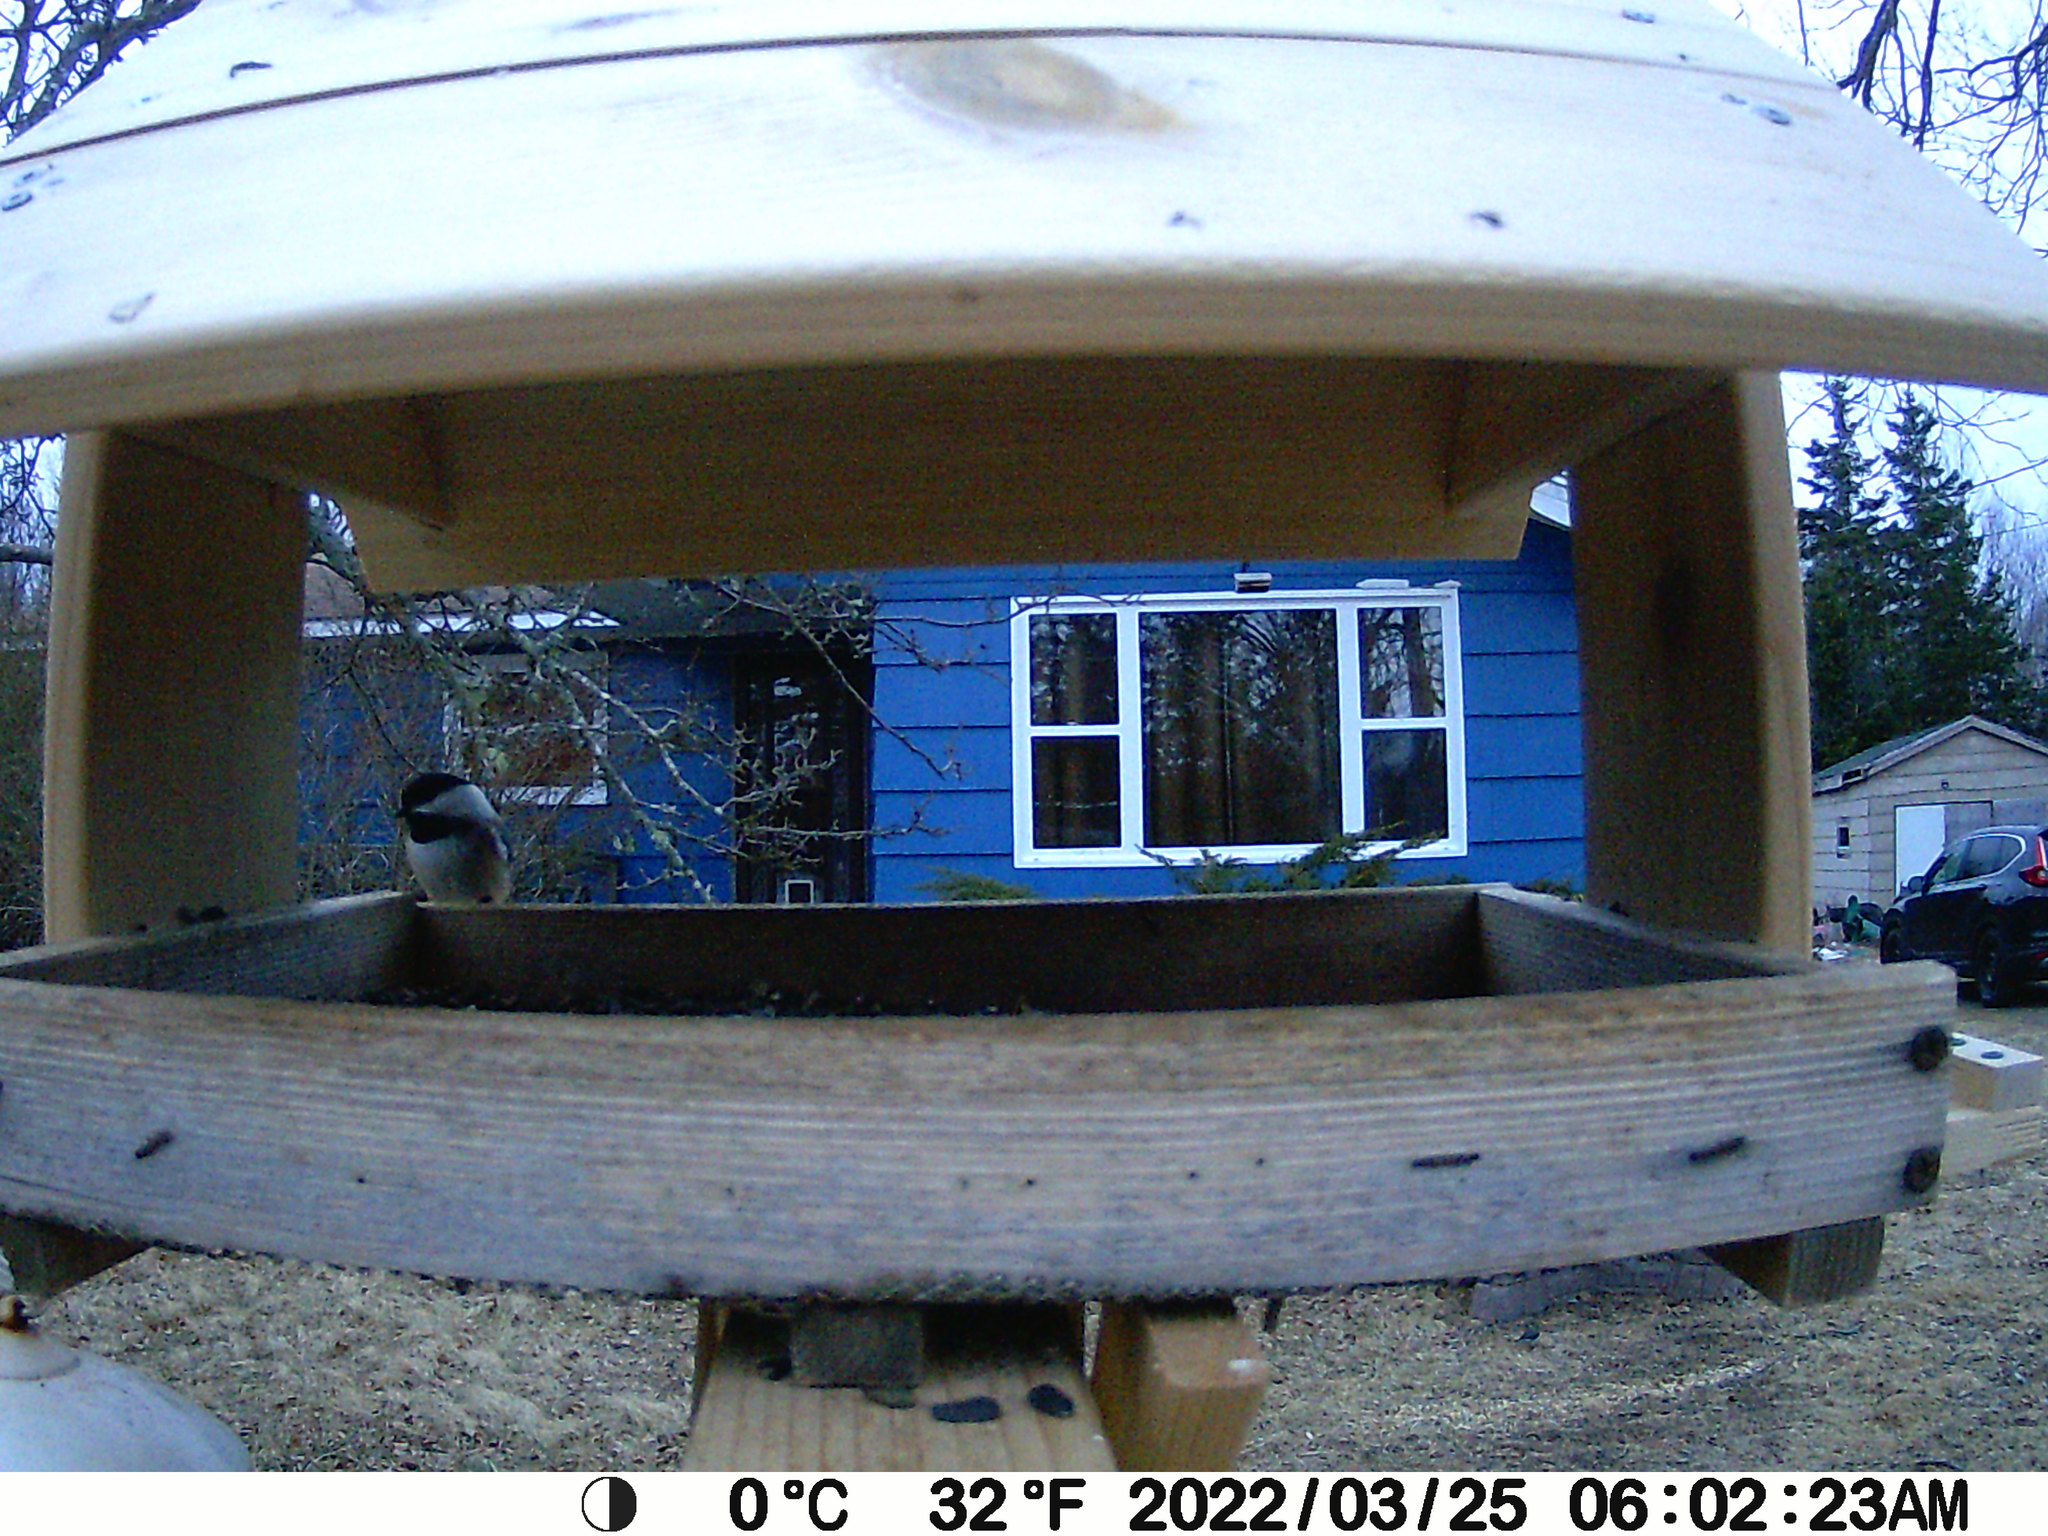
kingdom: Animalia
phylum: Chordata
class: Aves
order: Passeriformes
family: Paridae
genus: Poecile
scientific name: Poecile atricapillus
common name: Black-capped chickadee
